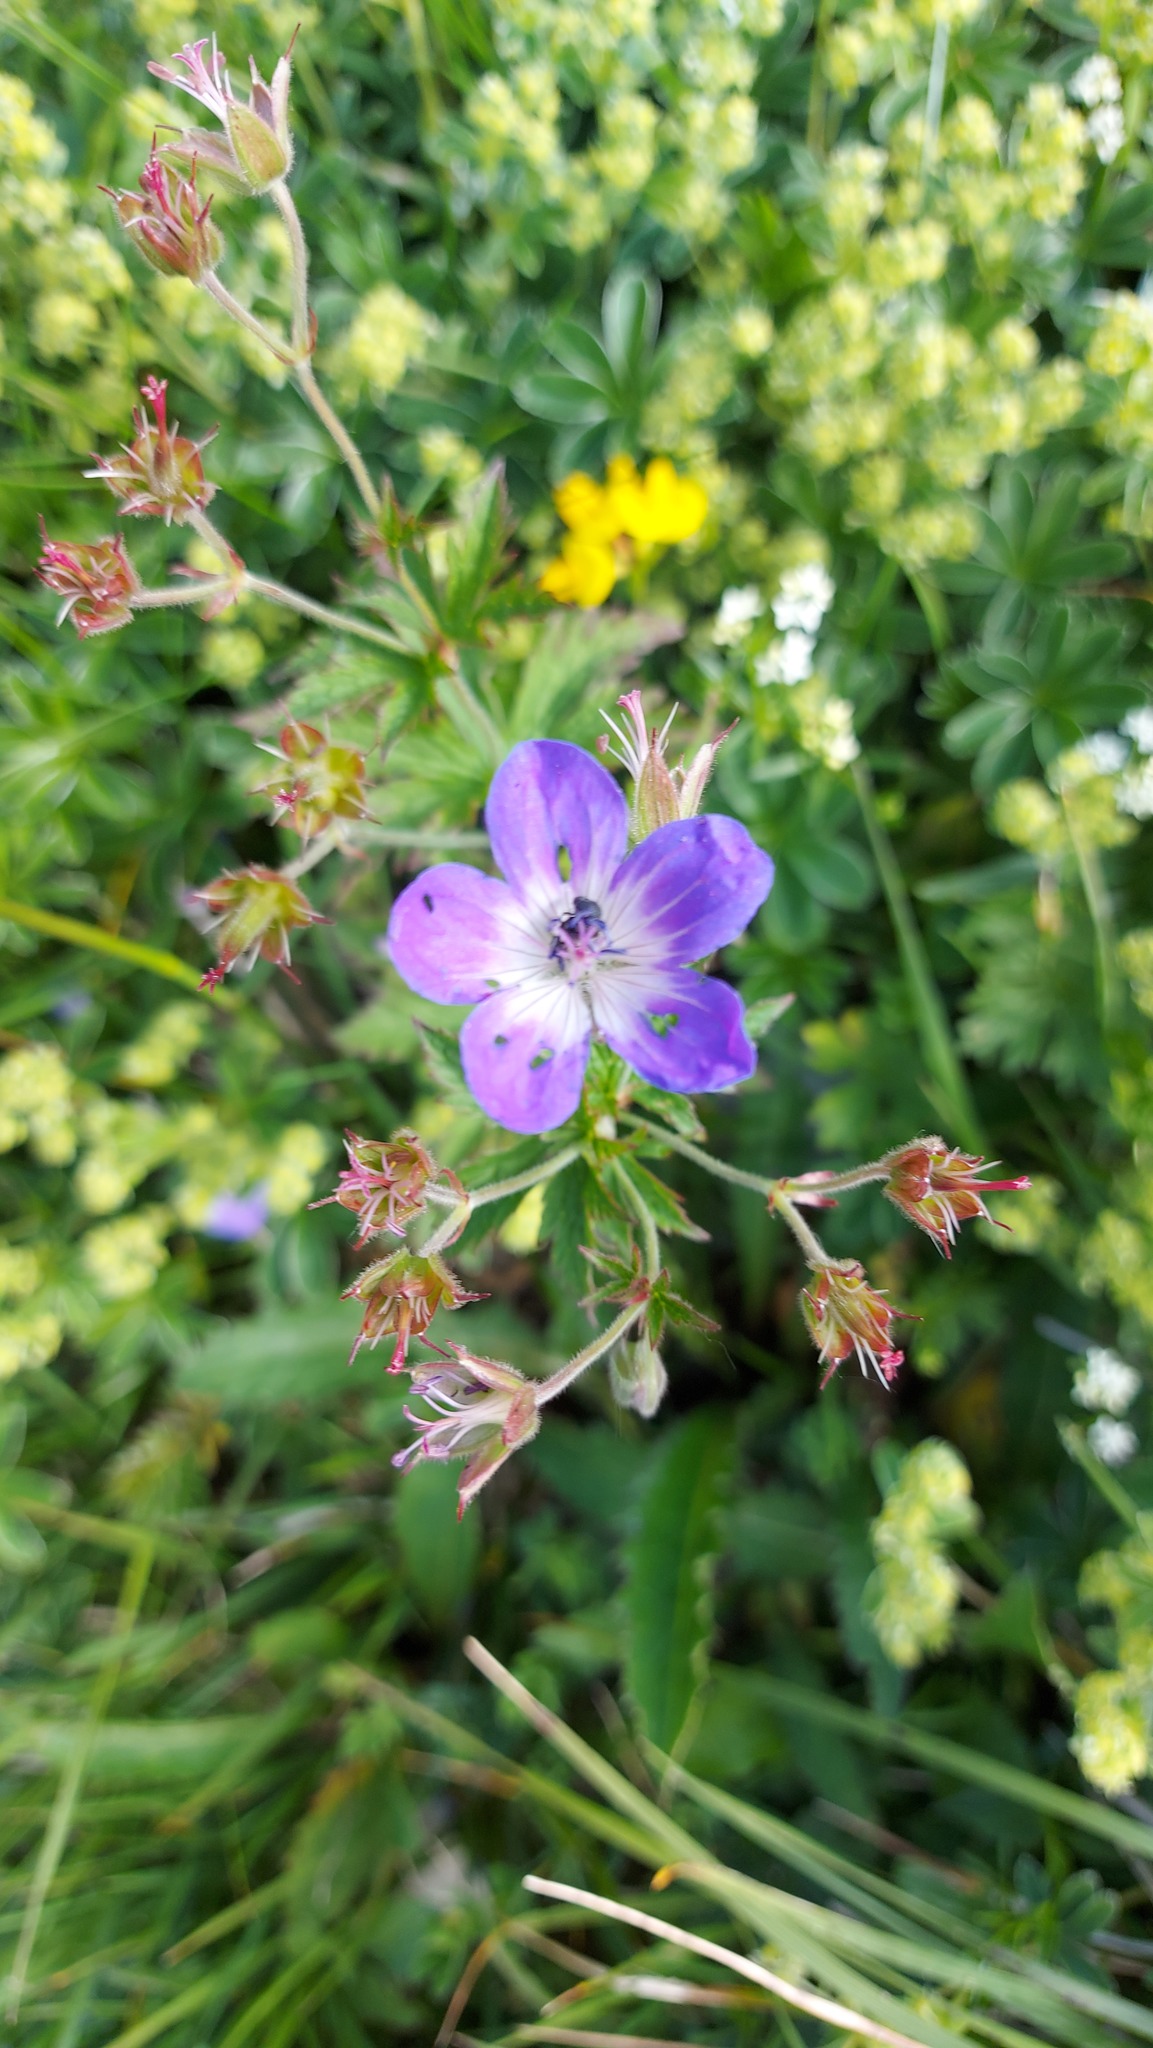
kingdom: Plantae
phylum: Tracheophyta
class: Magnoliopsida
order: Geraniales
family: Geraniaceae
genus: Geranium
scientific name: Geranium sylvaticum
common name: Wood crane's-bill
